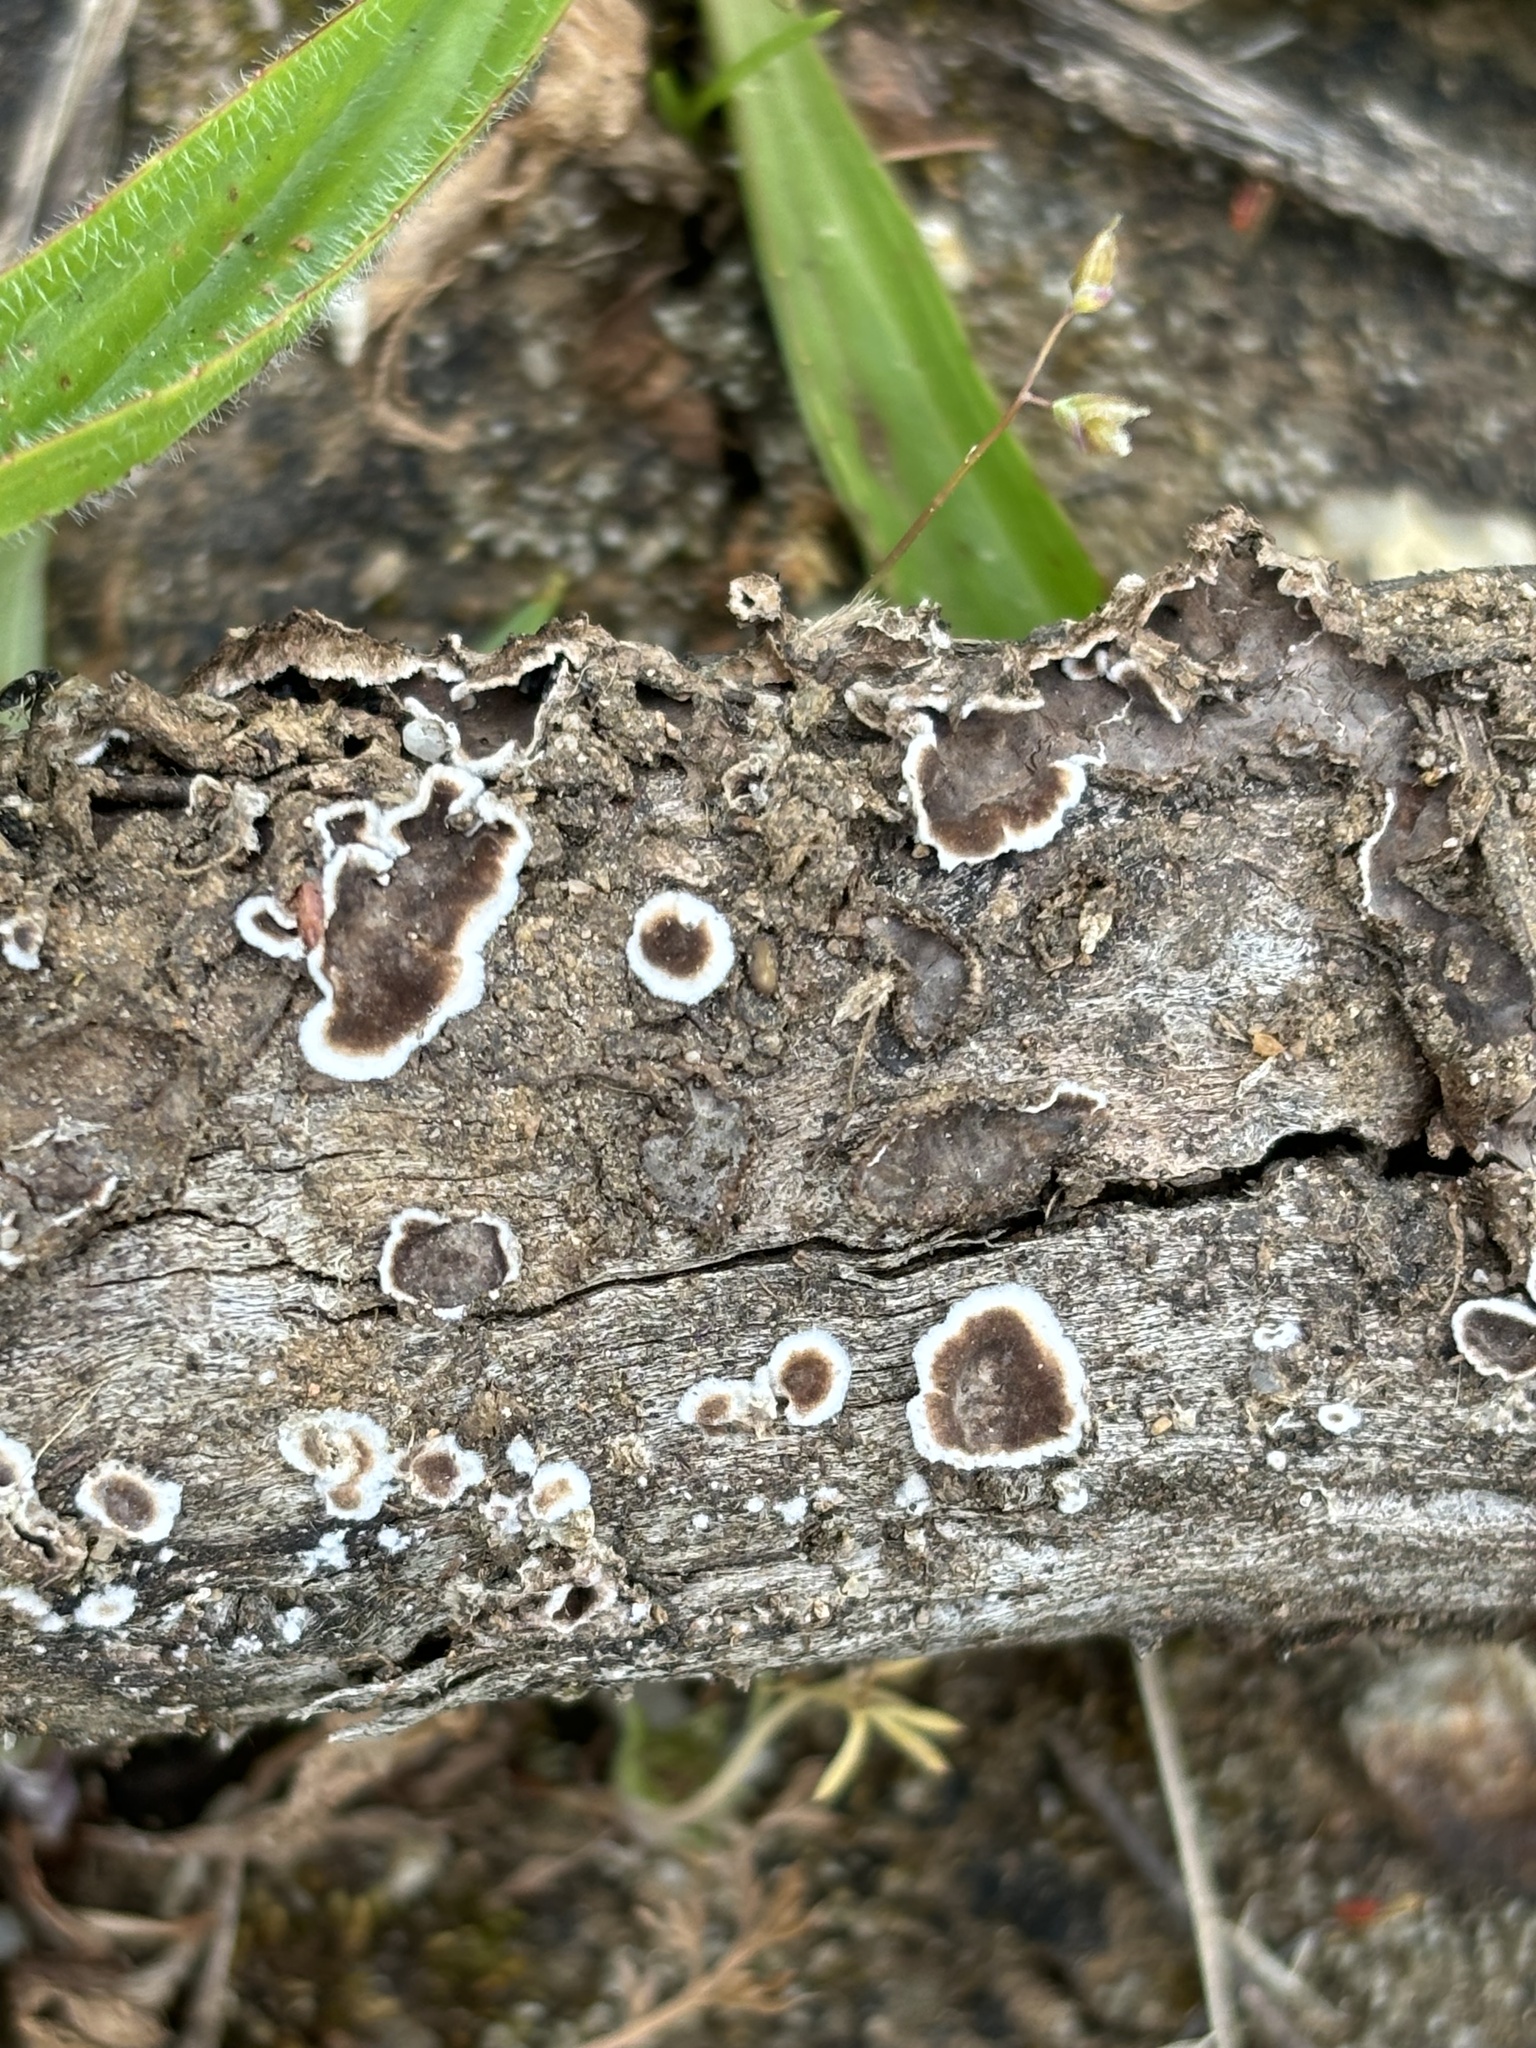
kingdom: Fungi
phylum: Basidiomycota
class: Agaricomycetes
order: Russulales
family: Peniophoraceae
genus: Peniophora
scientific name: Peniophora albobadia
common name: Giraffe spots
